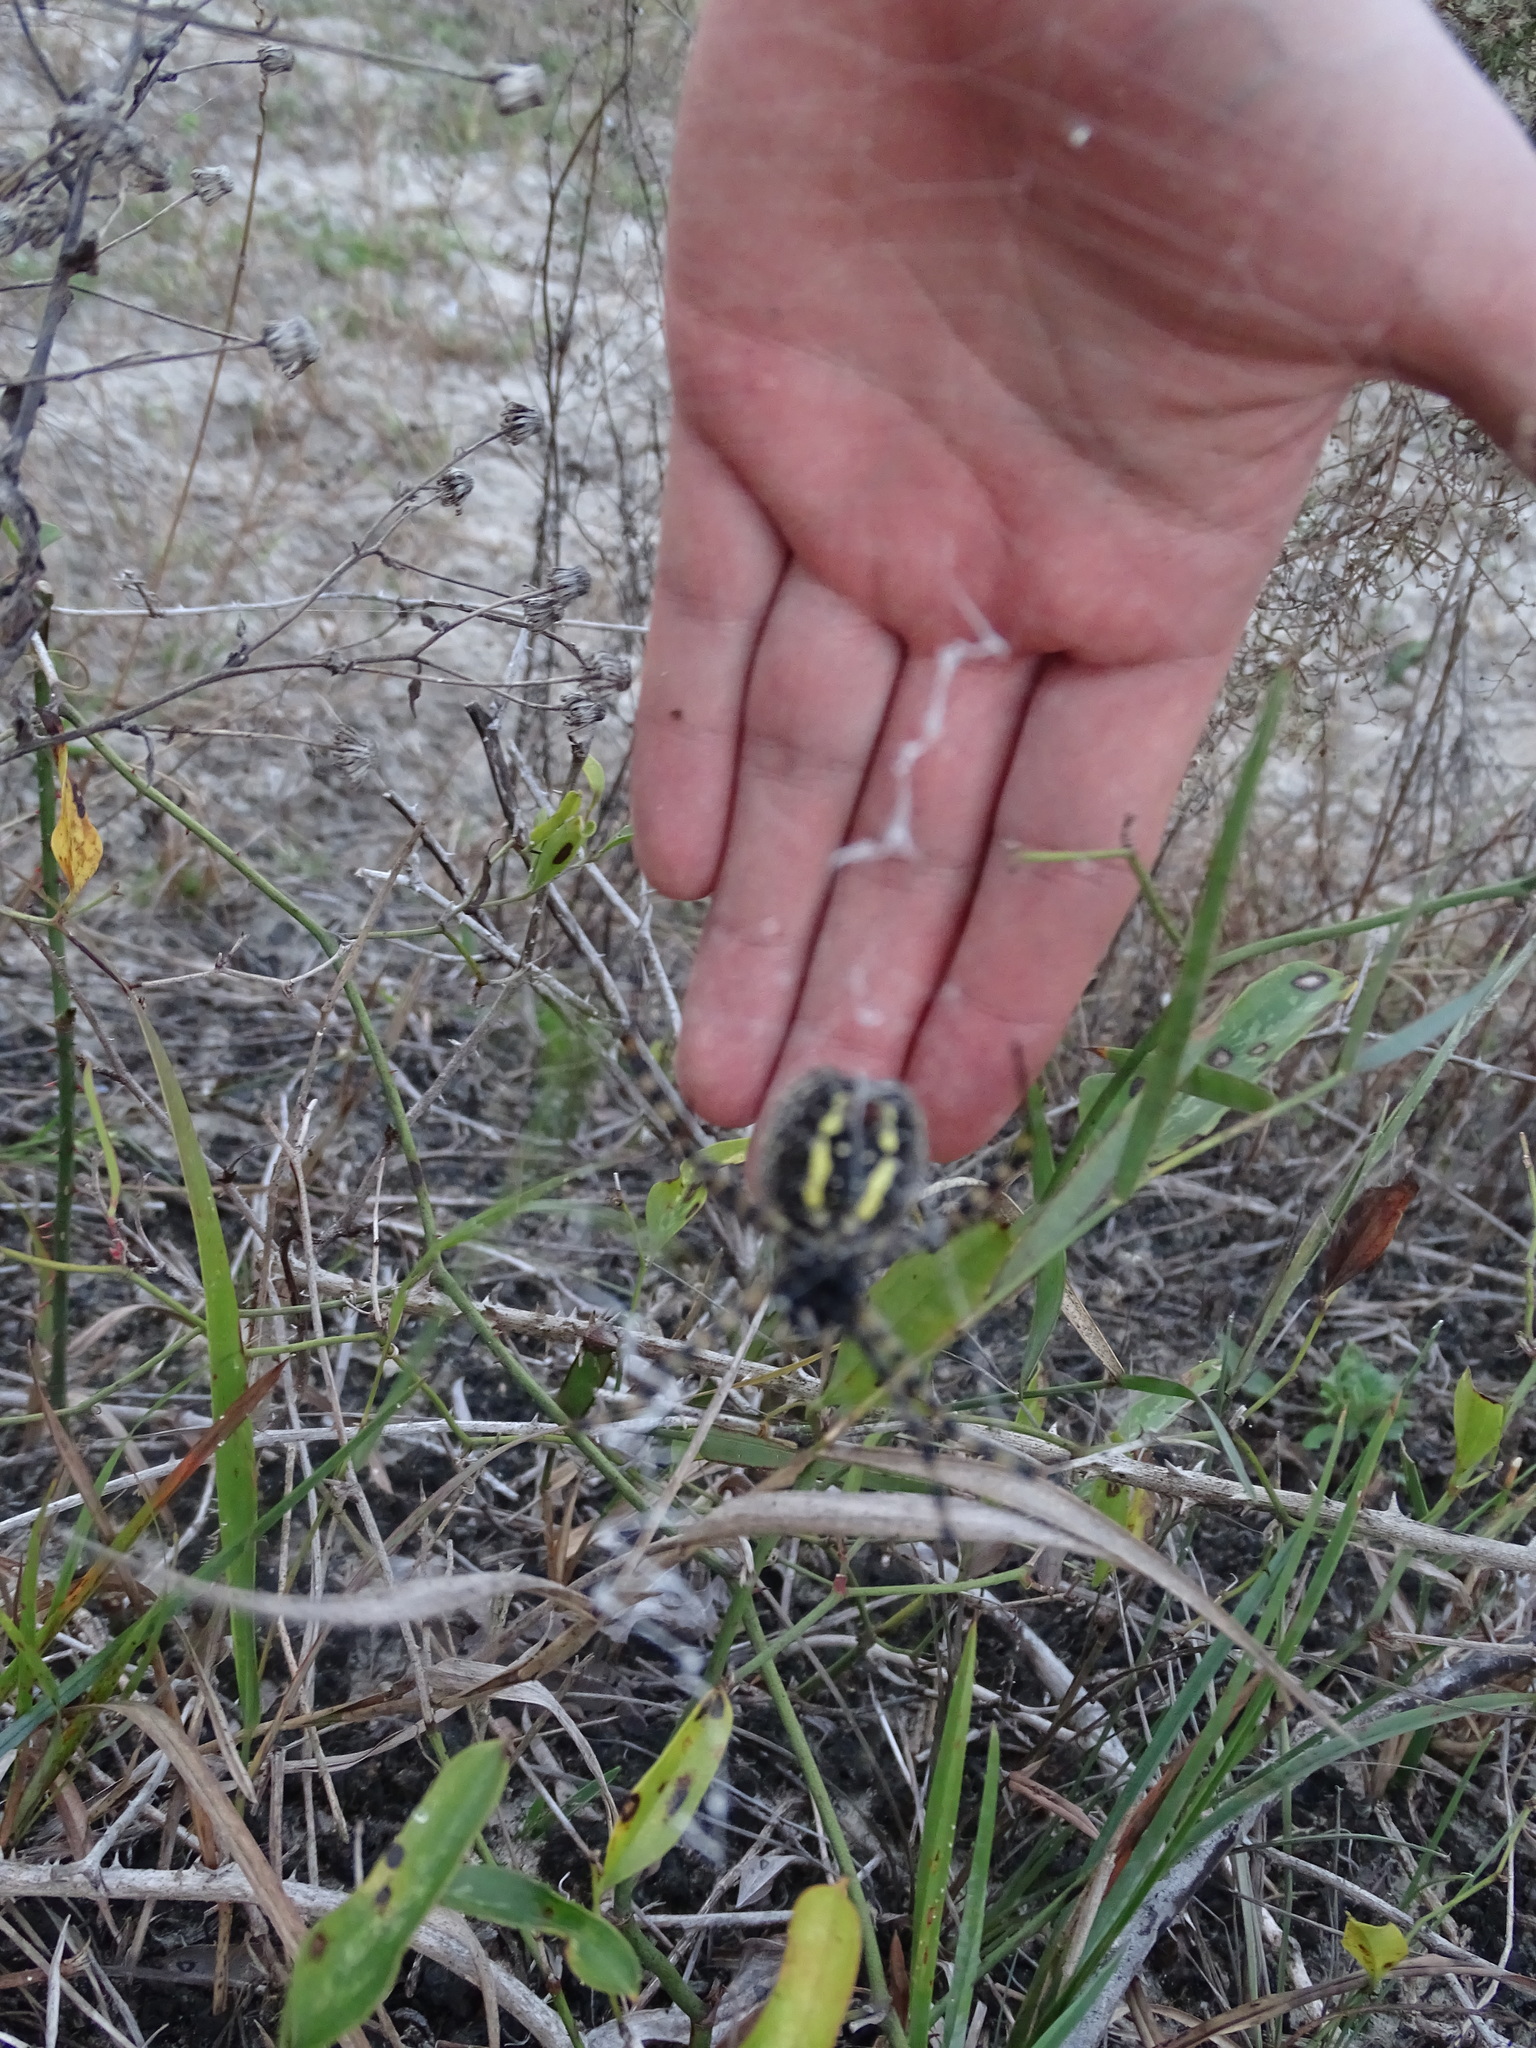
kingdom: Animalia
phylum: Arthropoda
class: Arachnida
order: Araneae
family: Araneidae
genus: Argiope
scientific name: Argiope trifasciata
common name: Banded garden spider
